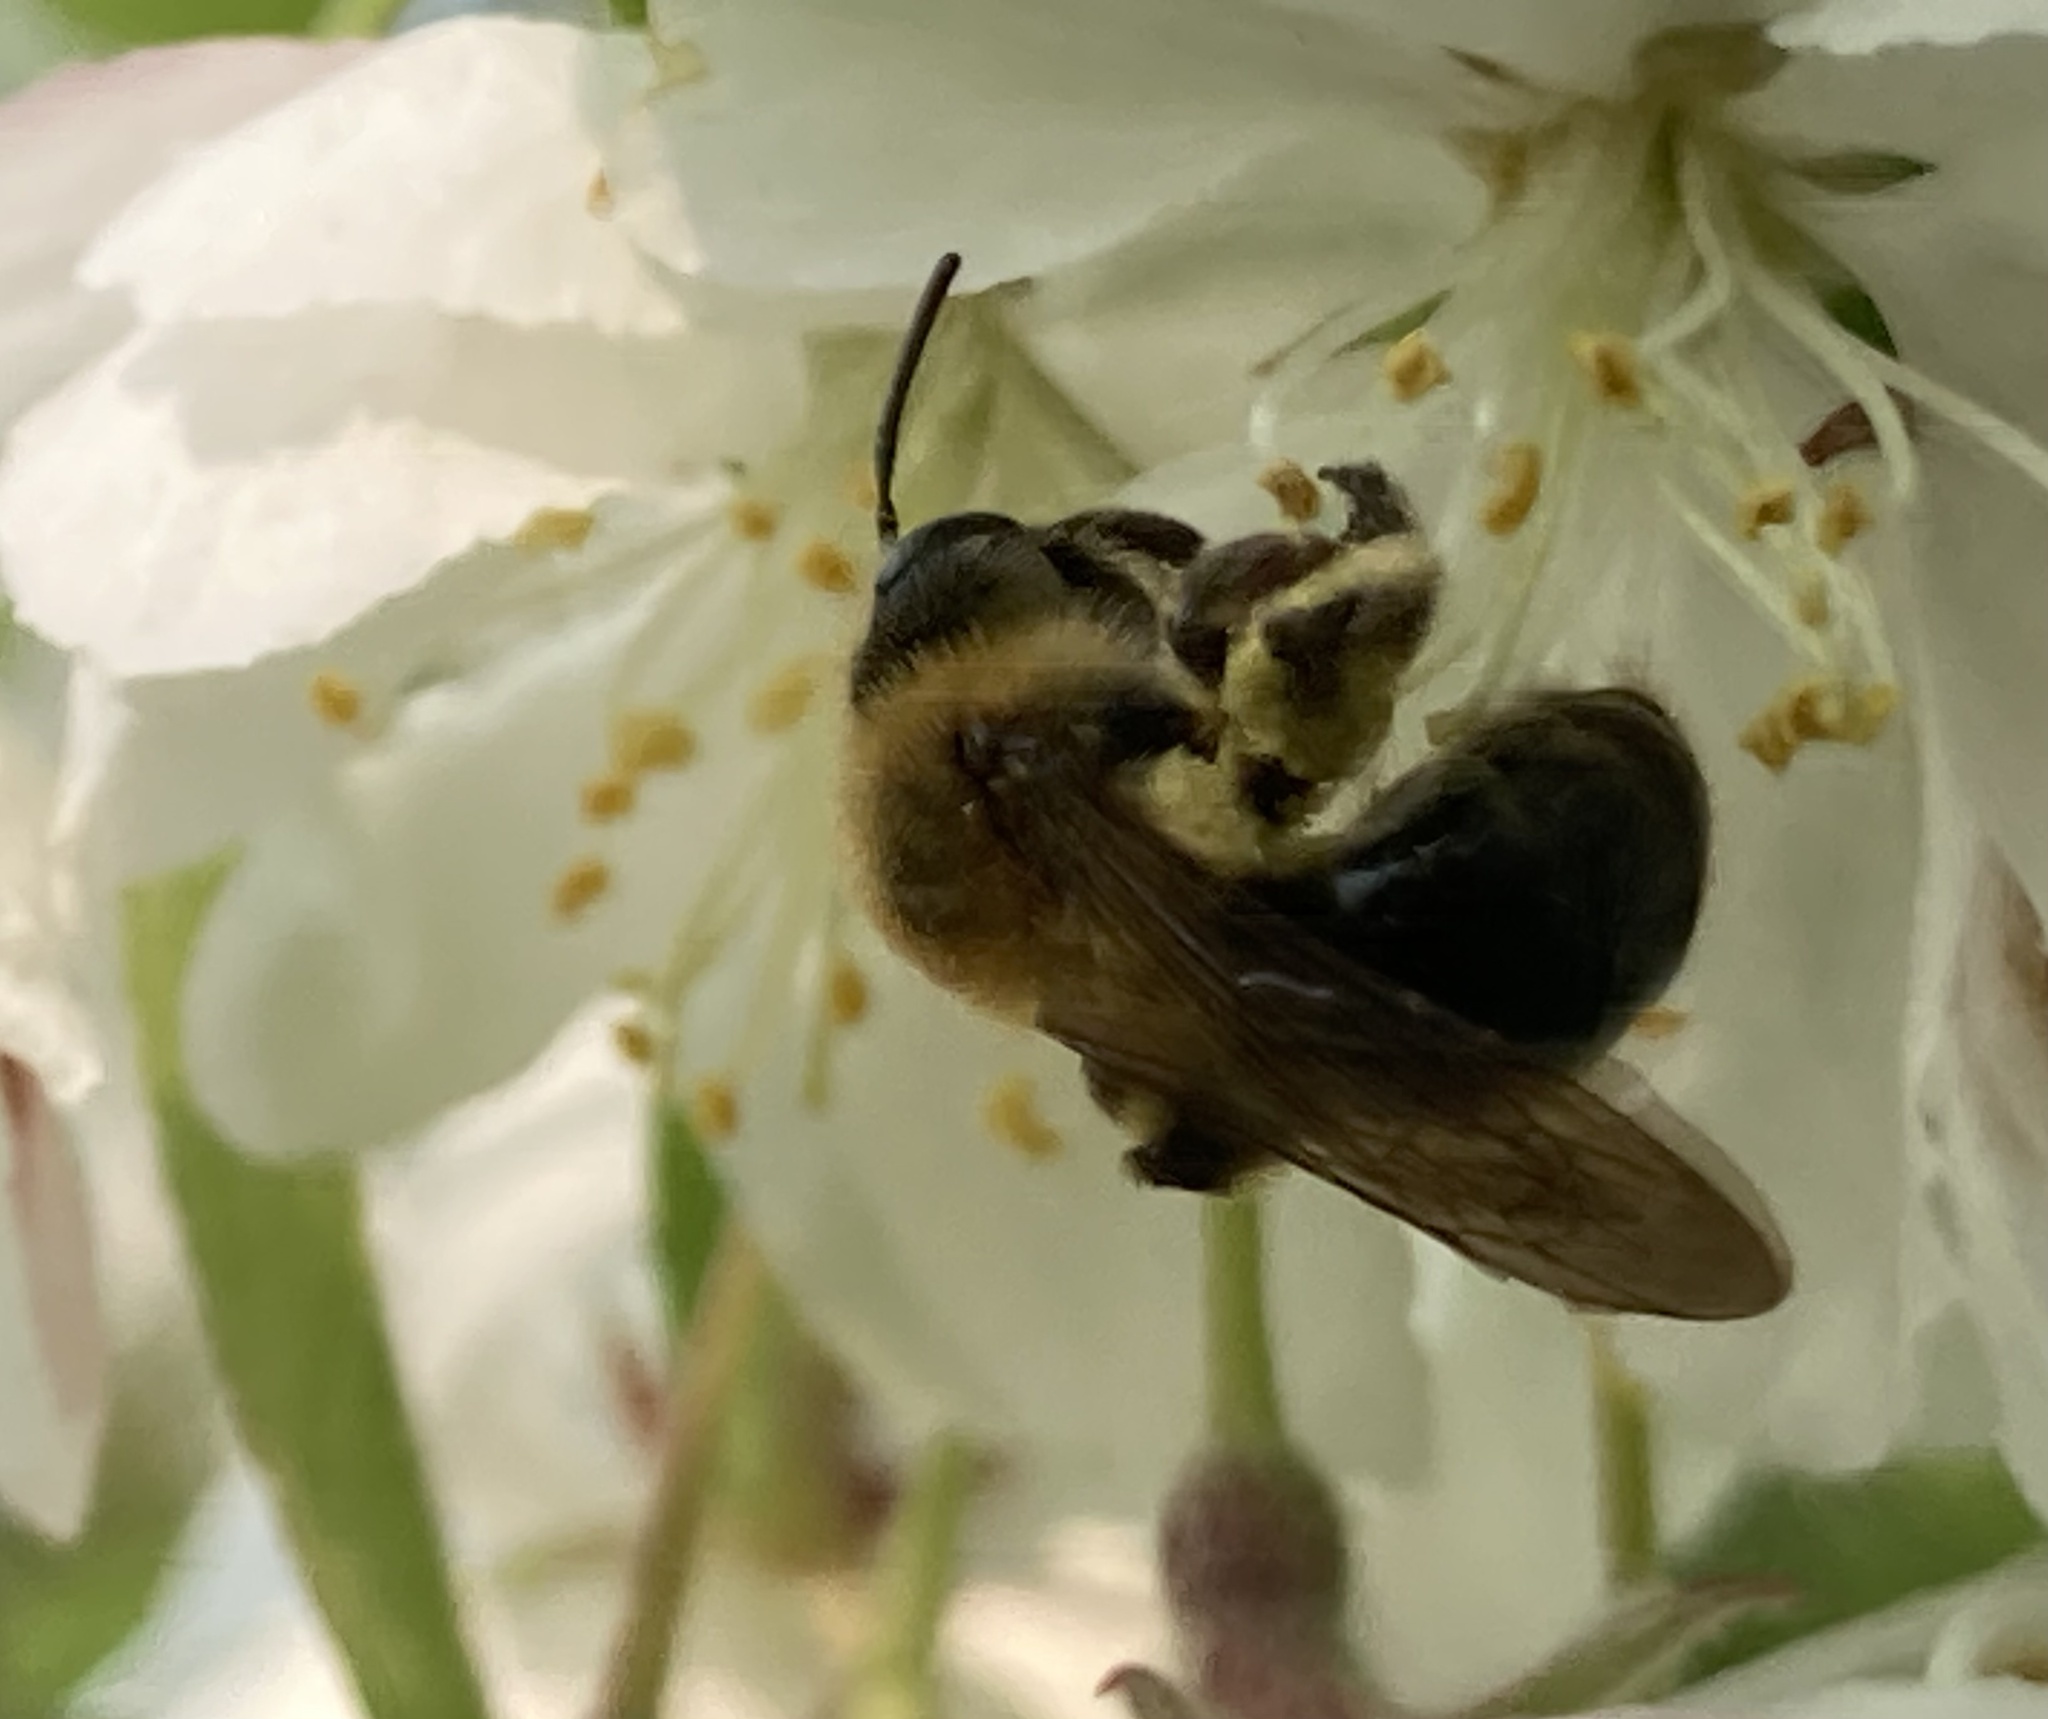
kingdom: Animalia
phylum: Arthropoda
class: Insecta
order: Hymenoptera
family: Andrenidae
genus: Andrena
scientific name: Andrena dunningi
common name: Dunning's miner
